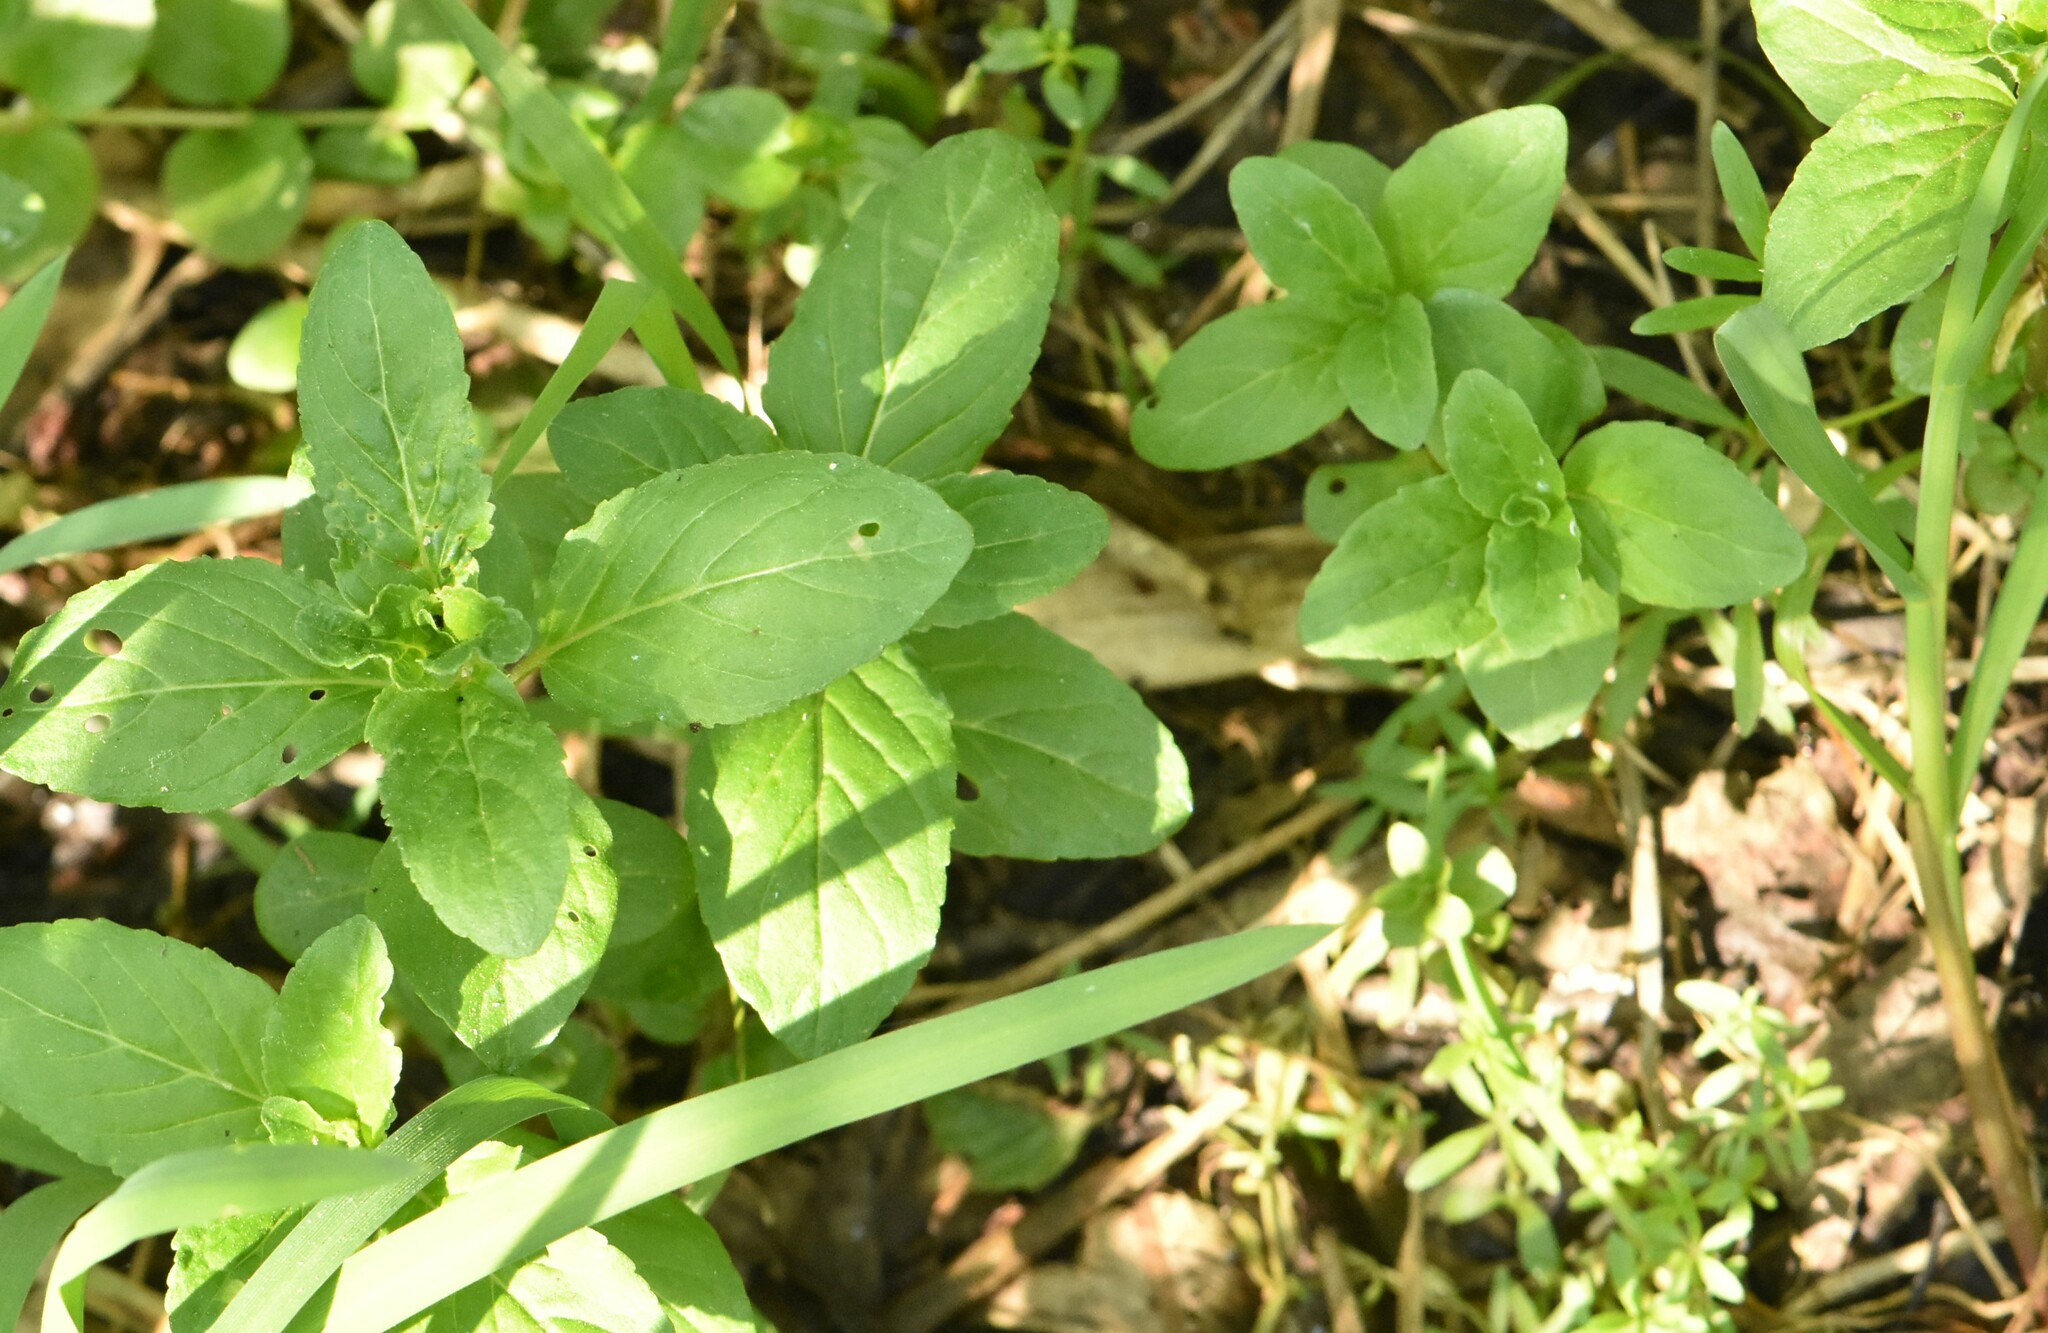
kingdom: Plantae
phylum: Tracheophyta
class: Magnoliopsida
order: Lamiales
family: Lamiaceae
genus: Mentha
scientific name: Mentha arvensis
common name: Corn mint
